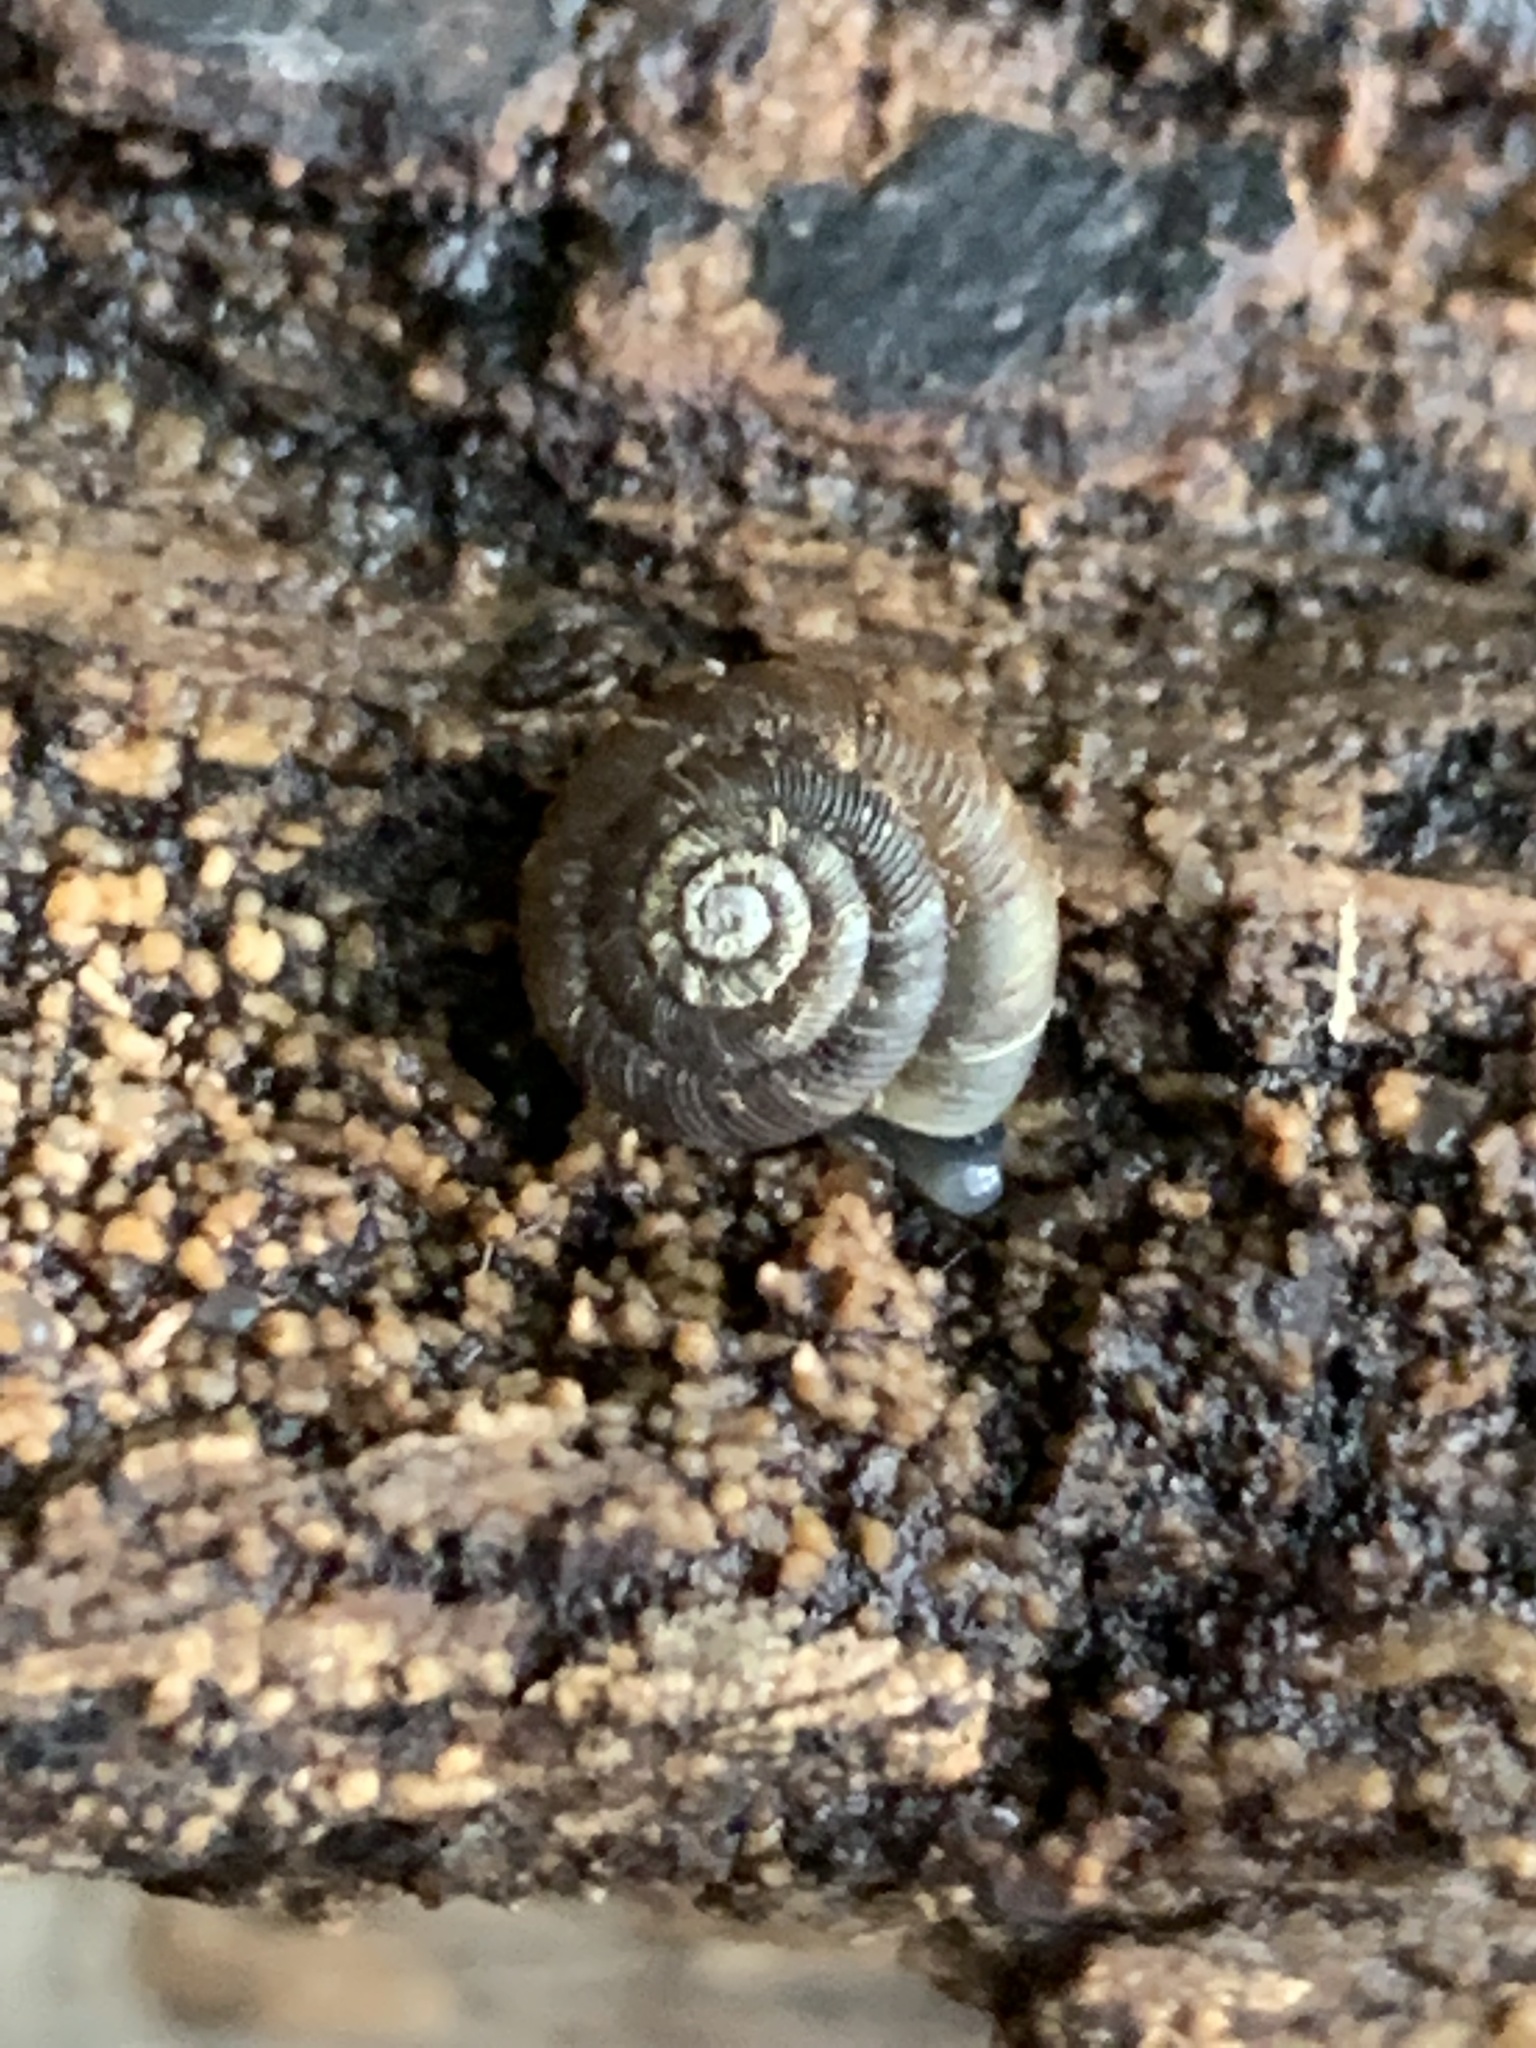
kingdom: Animalia
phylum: Mollusca
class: Gastropoda
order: Stylommatophora
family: Discidae
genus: Discus
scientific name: Discus rotundatus
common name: Rounded snail
